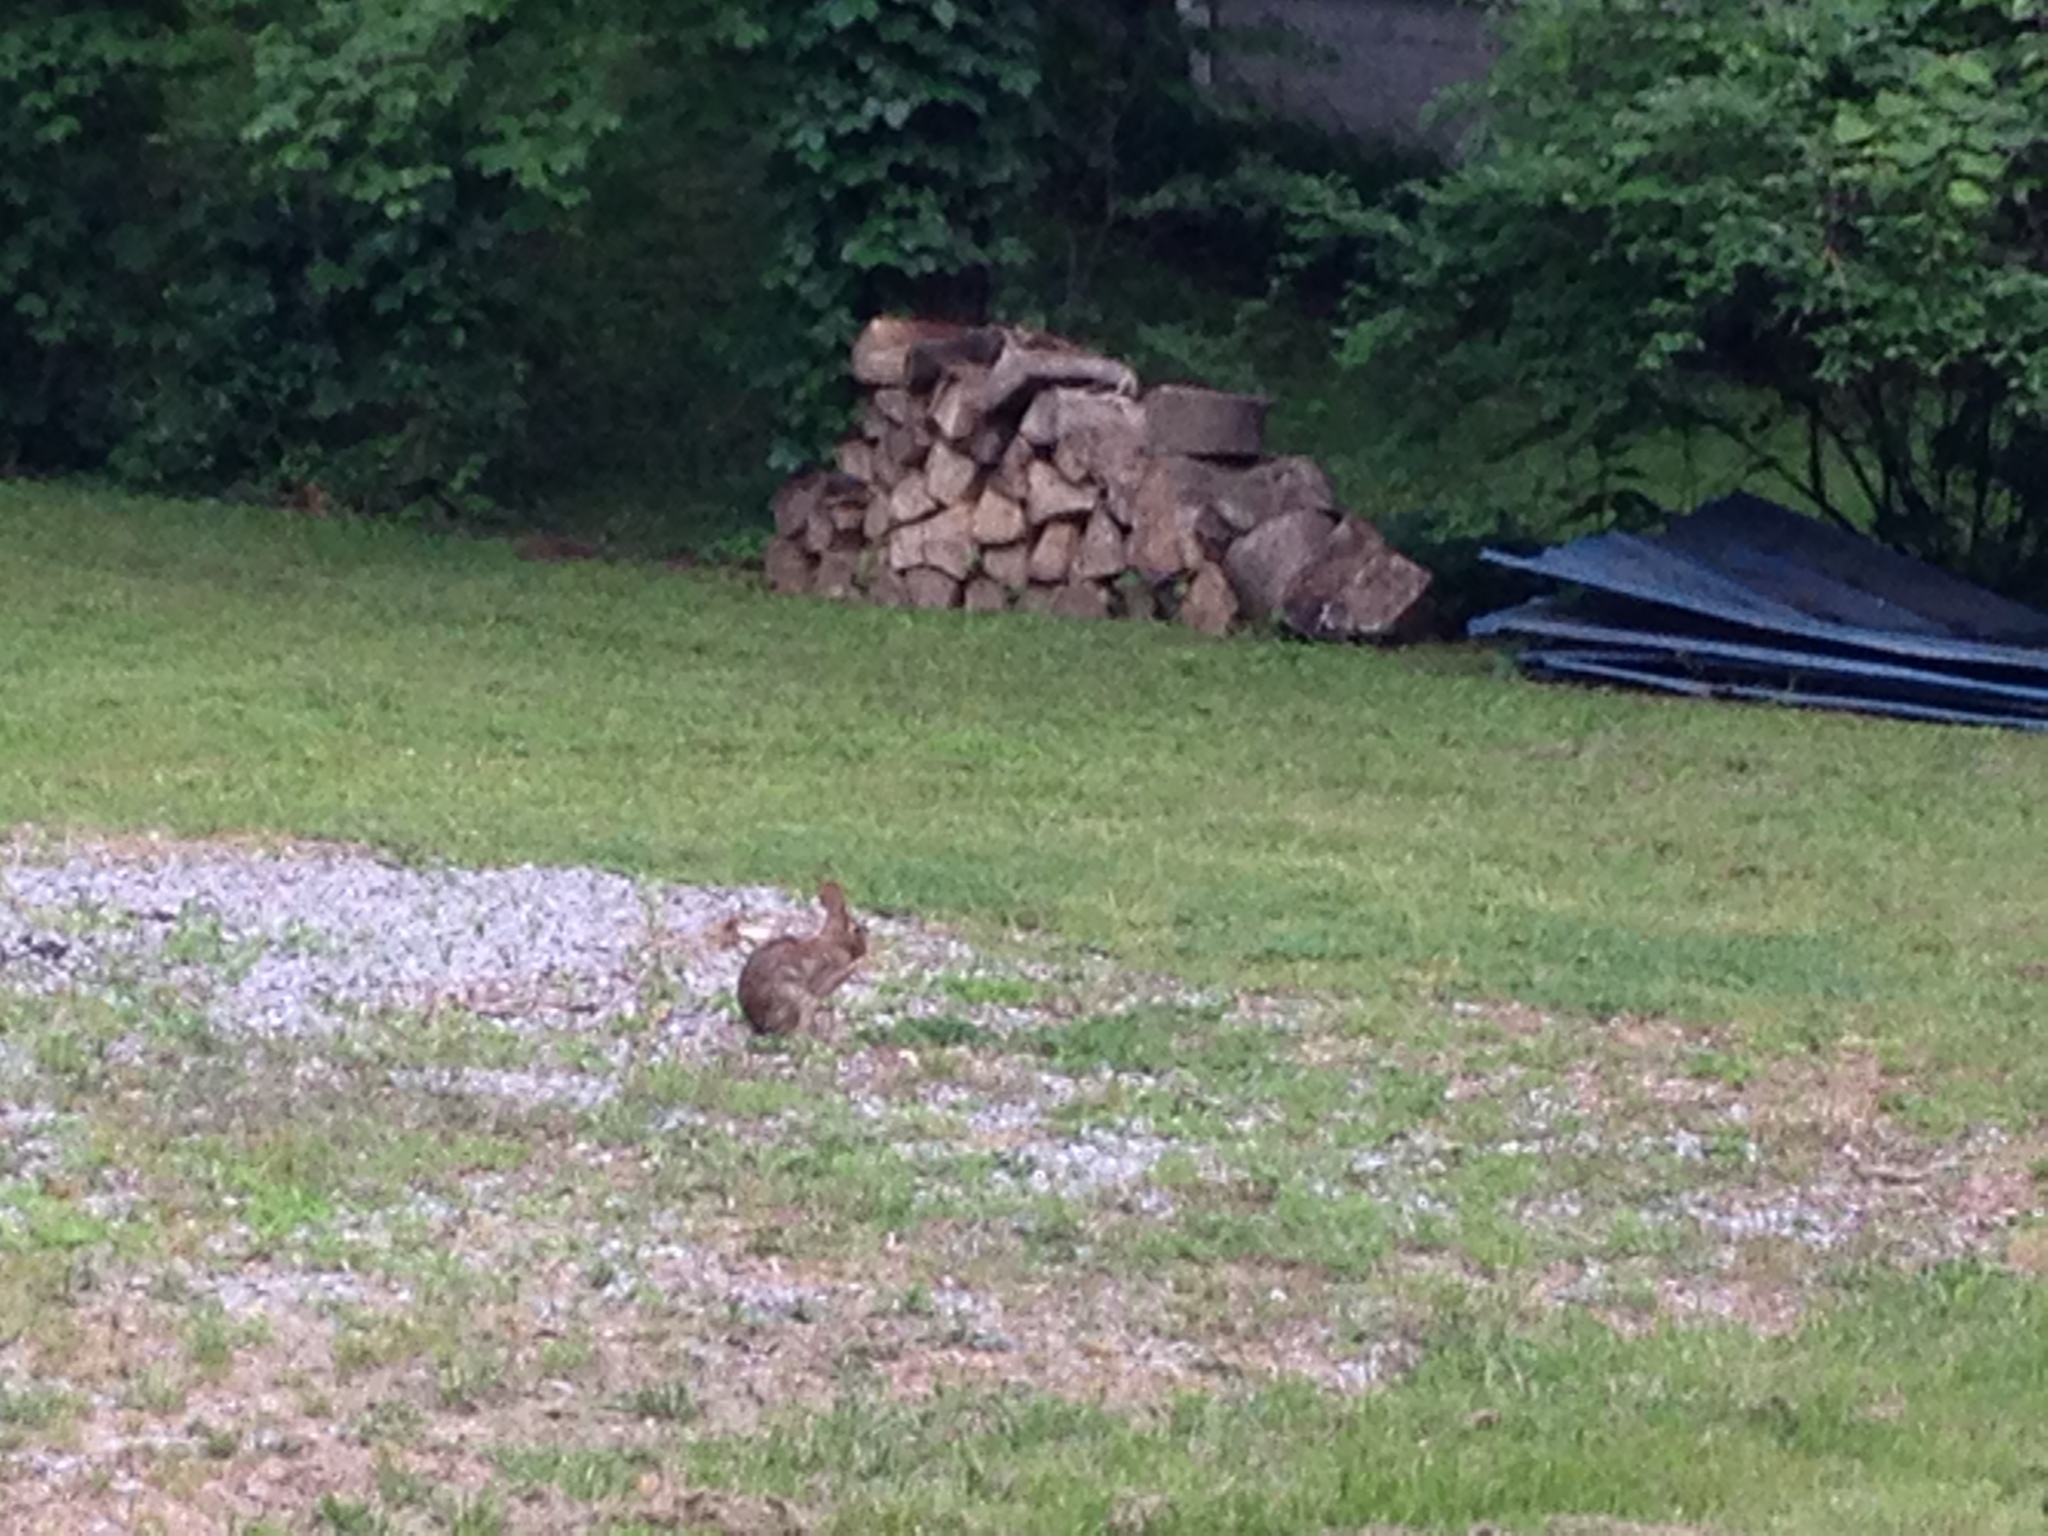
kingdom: Animalia
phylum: Chordata
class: Mammalia
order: Lagomorpha
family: Leporidae
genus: Sylvilagus
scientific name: Sylvilagus floridanus
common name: Eastern cottontail
